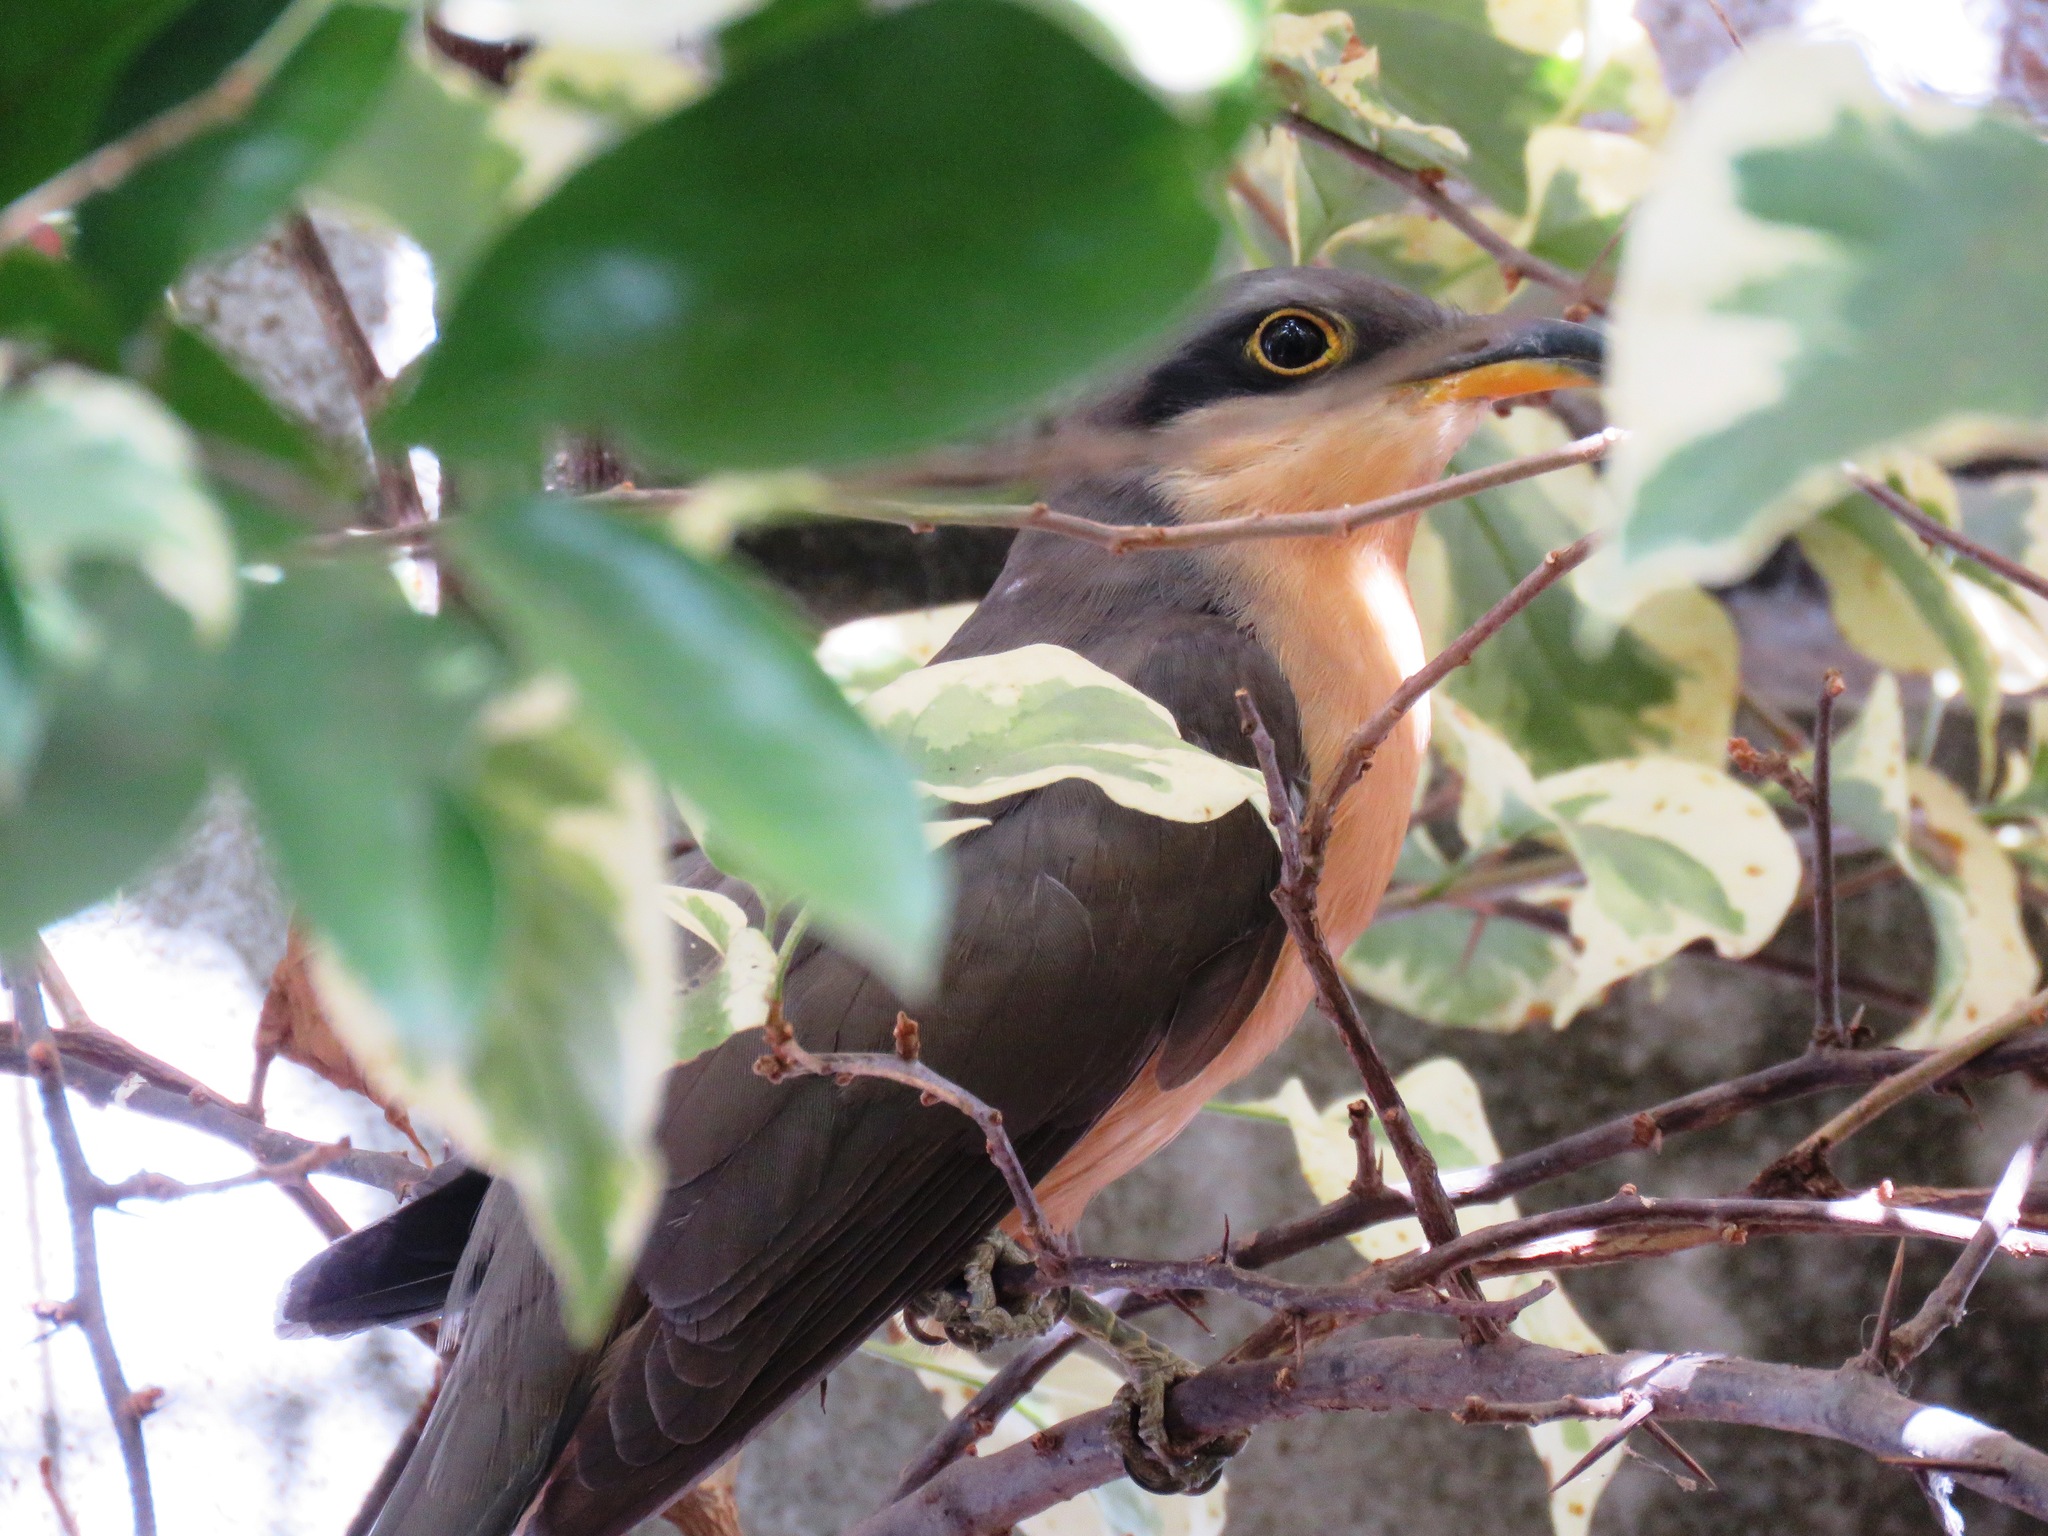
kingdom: Animalia
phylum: Chordata
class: Aves
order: Cuculiformes
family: Cuculidae
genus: Coccyzus
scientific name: Coccyzus minor
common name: Mangrove cuckoo
